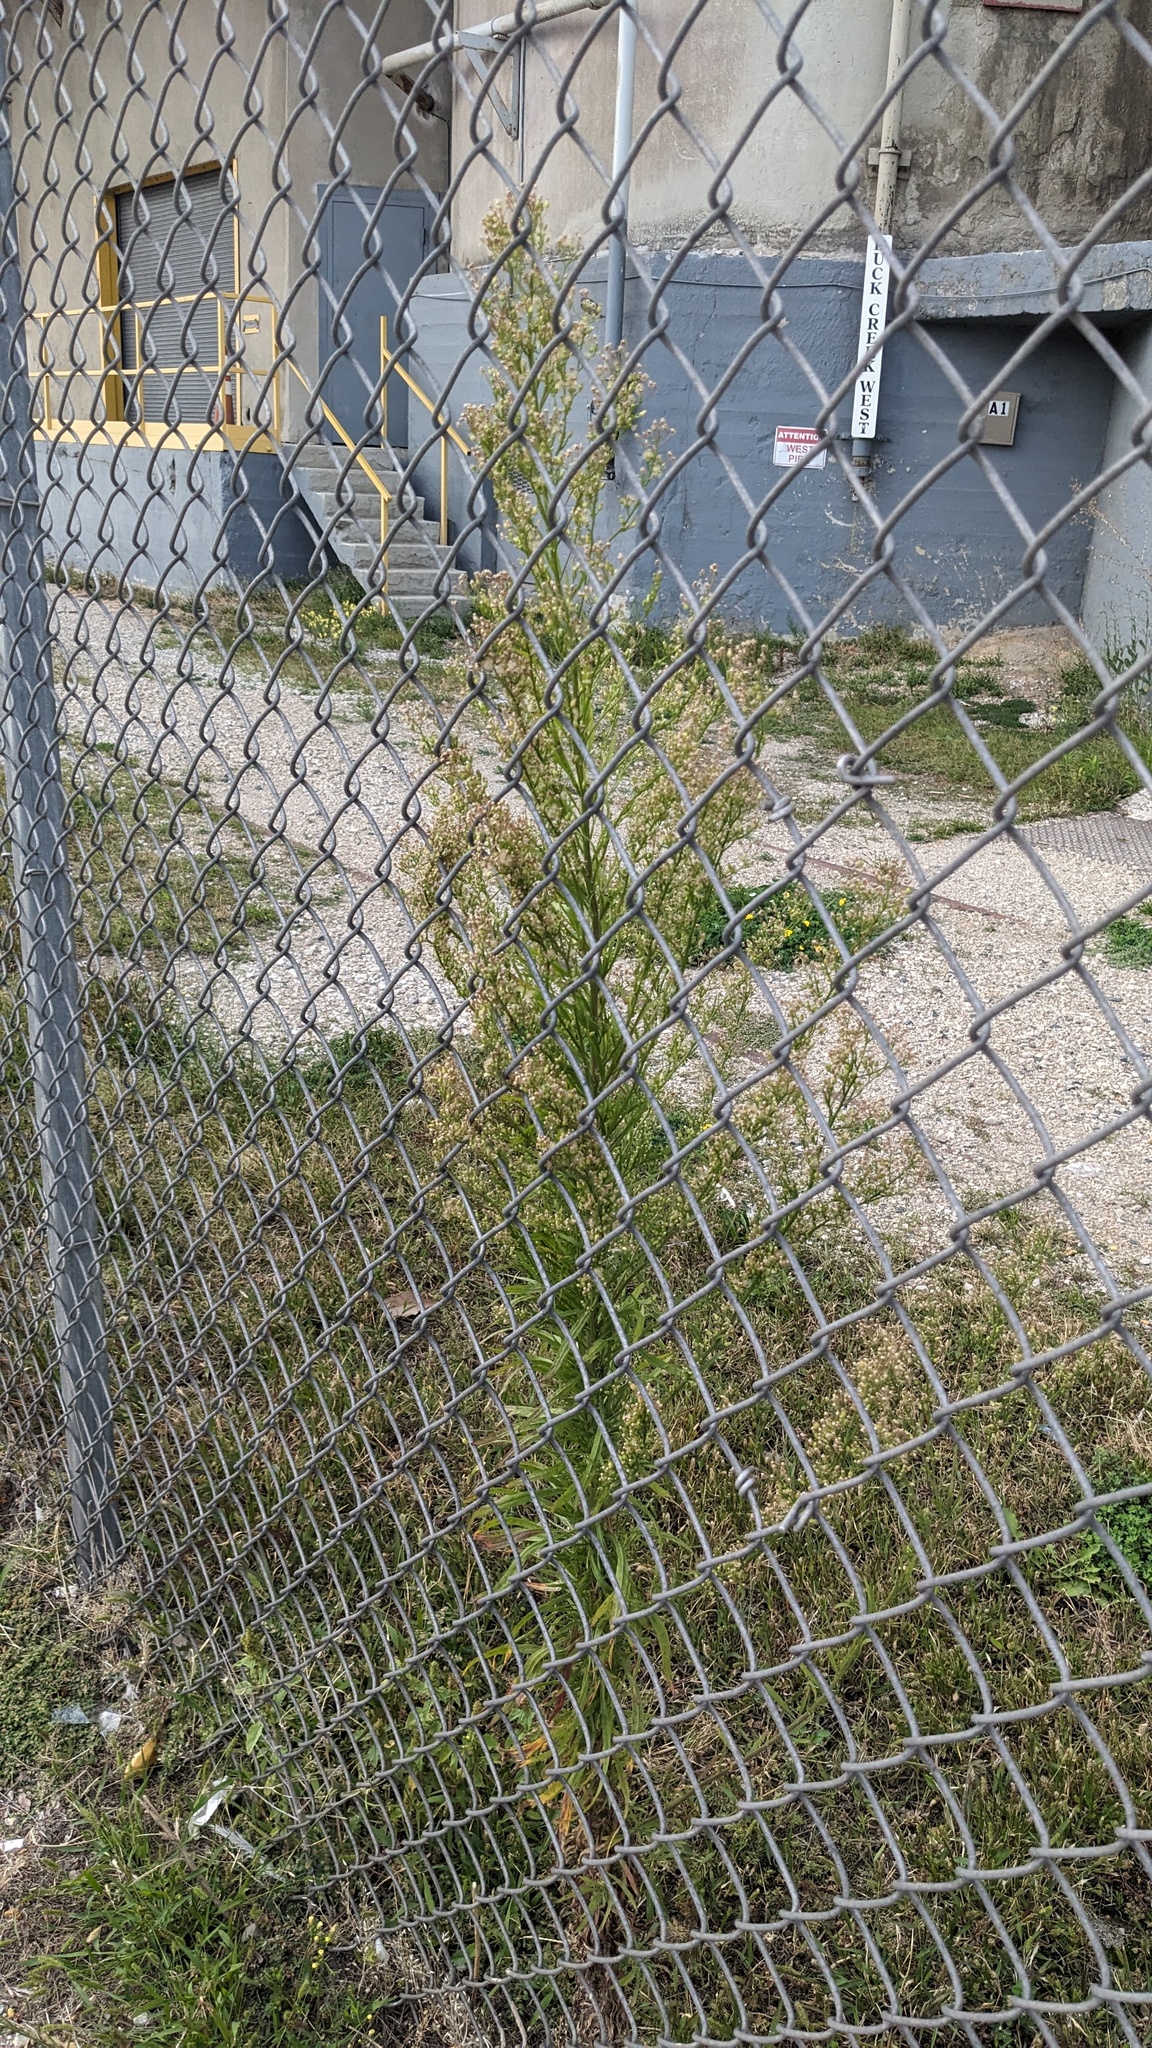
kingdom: Plantae
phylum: Tracheophyta
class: Magnoliopsida
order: Asterales
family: Asteraceae
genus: Erigeron
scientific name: Erigeron canadensis
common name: Canadian fleabane
